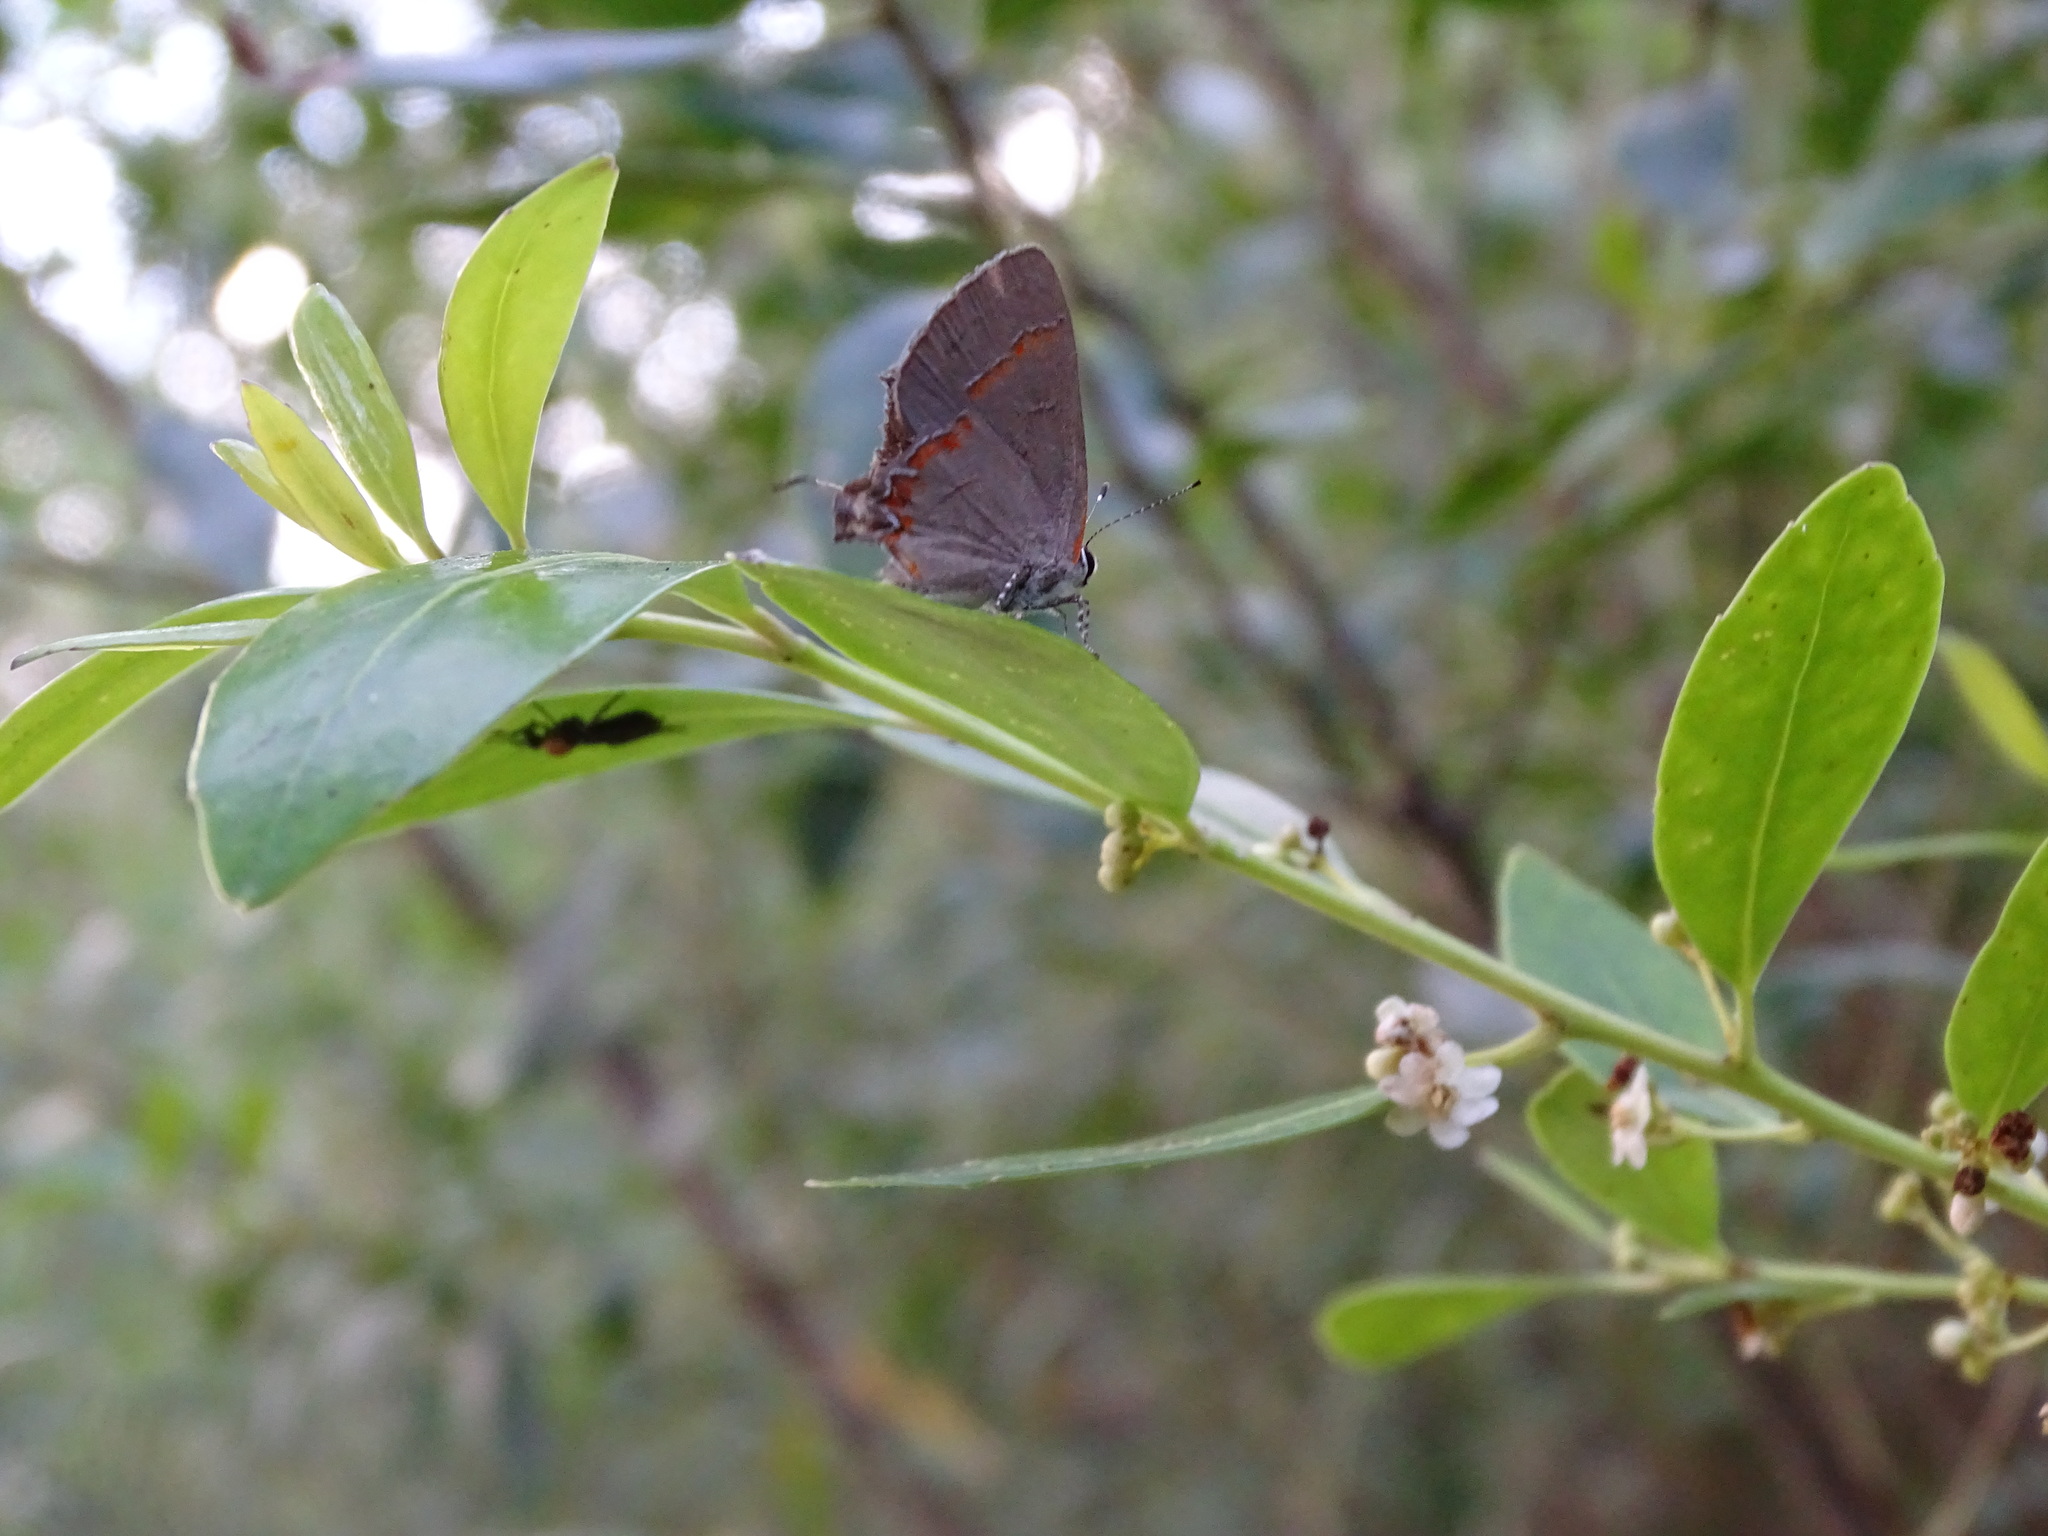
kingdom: Animalia
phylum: Arthropoda
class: Insecta
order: Lepidoptera
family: Lycaenidae
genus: Calycopis
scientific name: Calycopis cecrops
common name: Red-banded hairstreak
